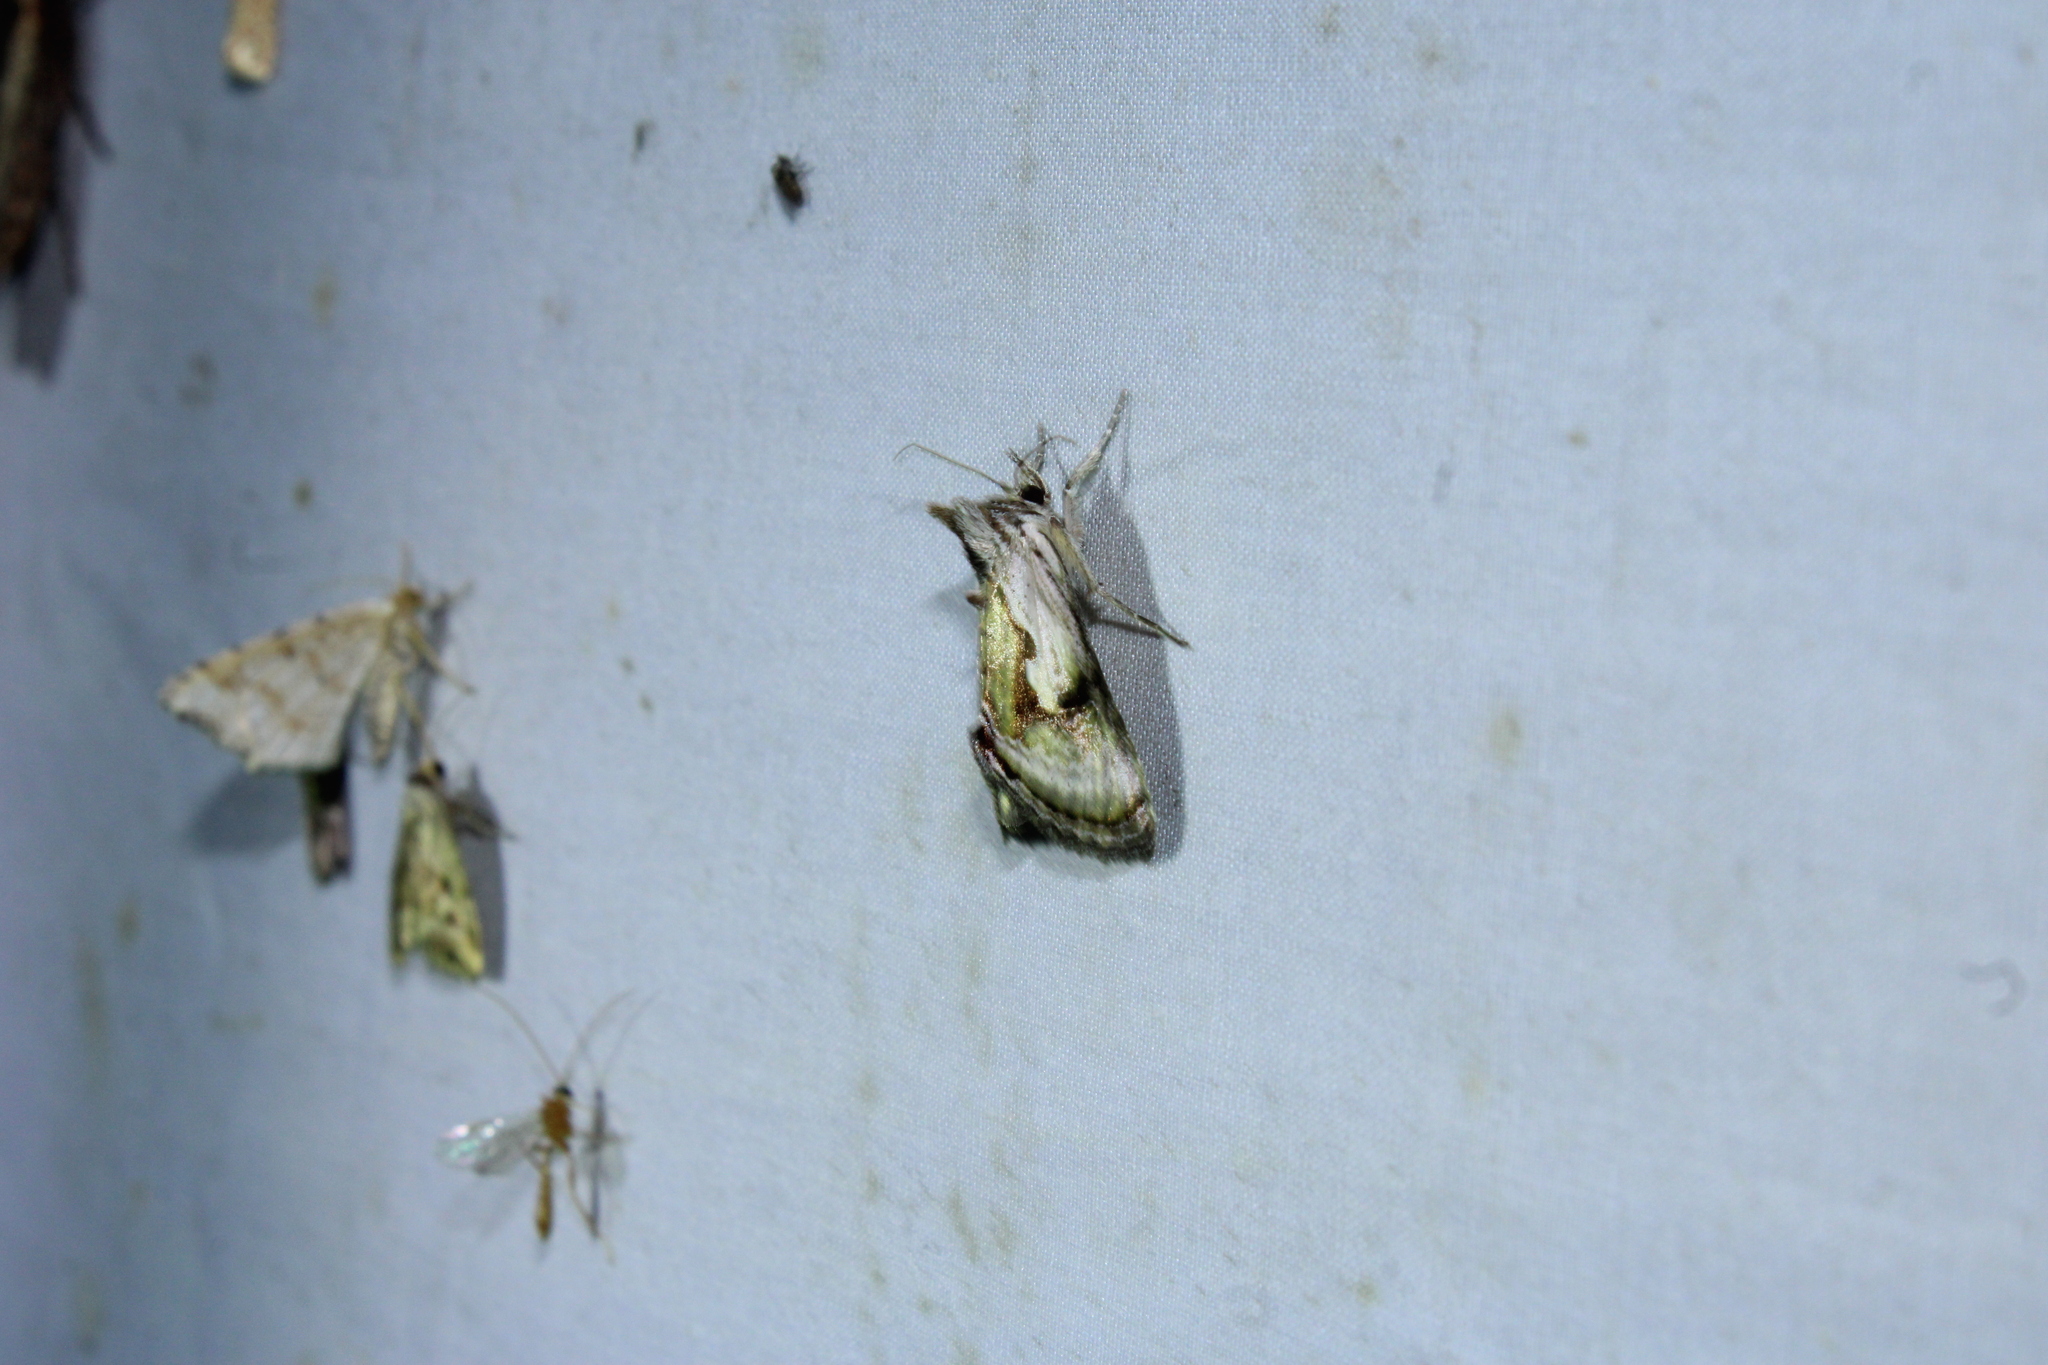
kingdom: Animalia
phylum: Arthropoda
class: Insecta
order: Lepidoptera
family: Noctuidae
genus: Chrysanympha
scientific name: Chrysanympha formosa
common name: Formosa looper moth
